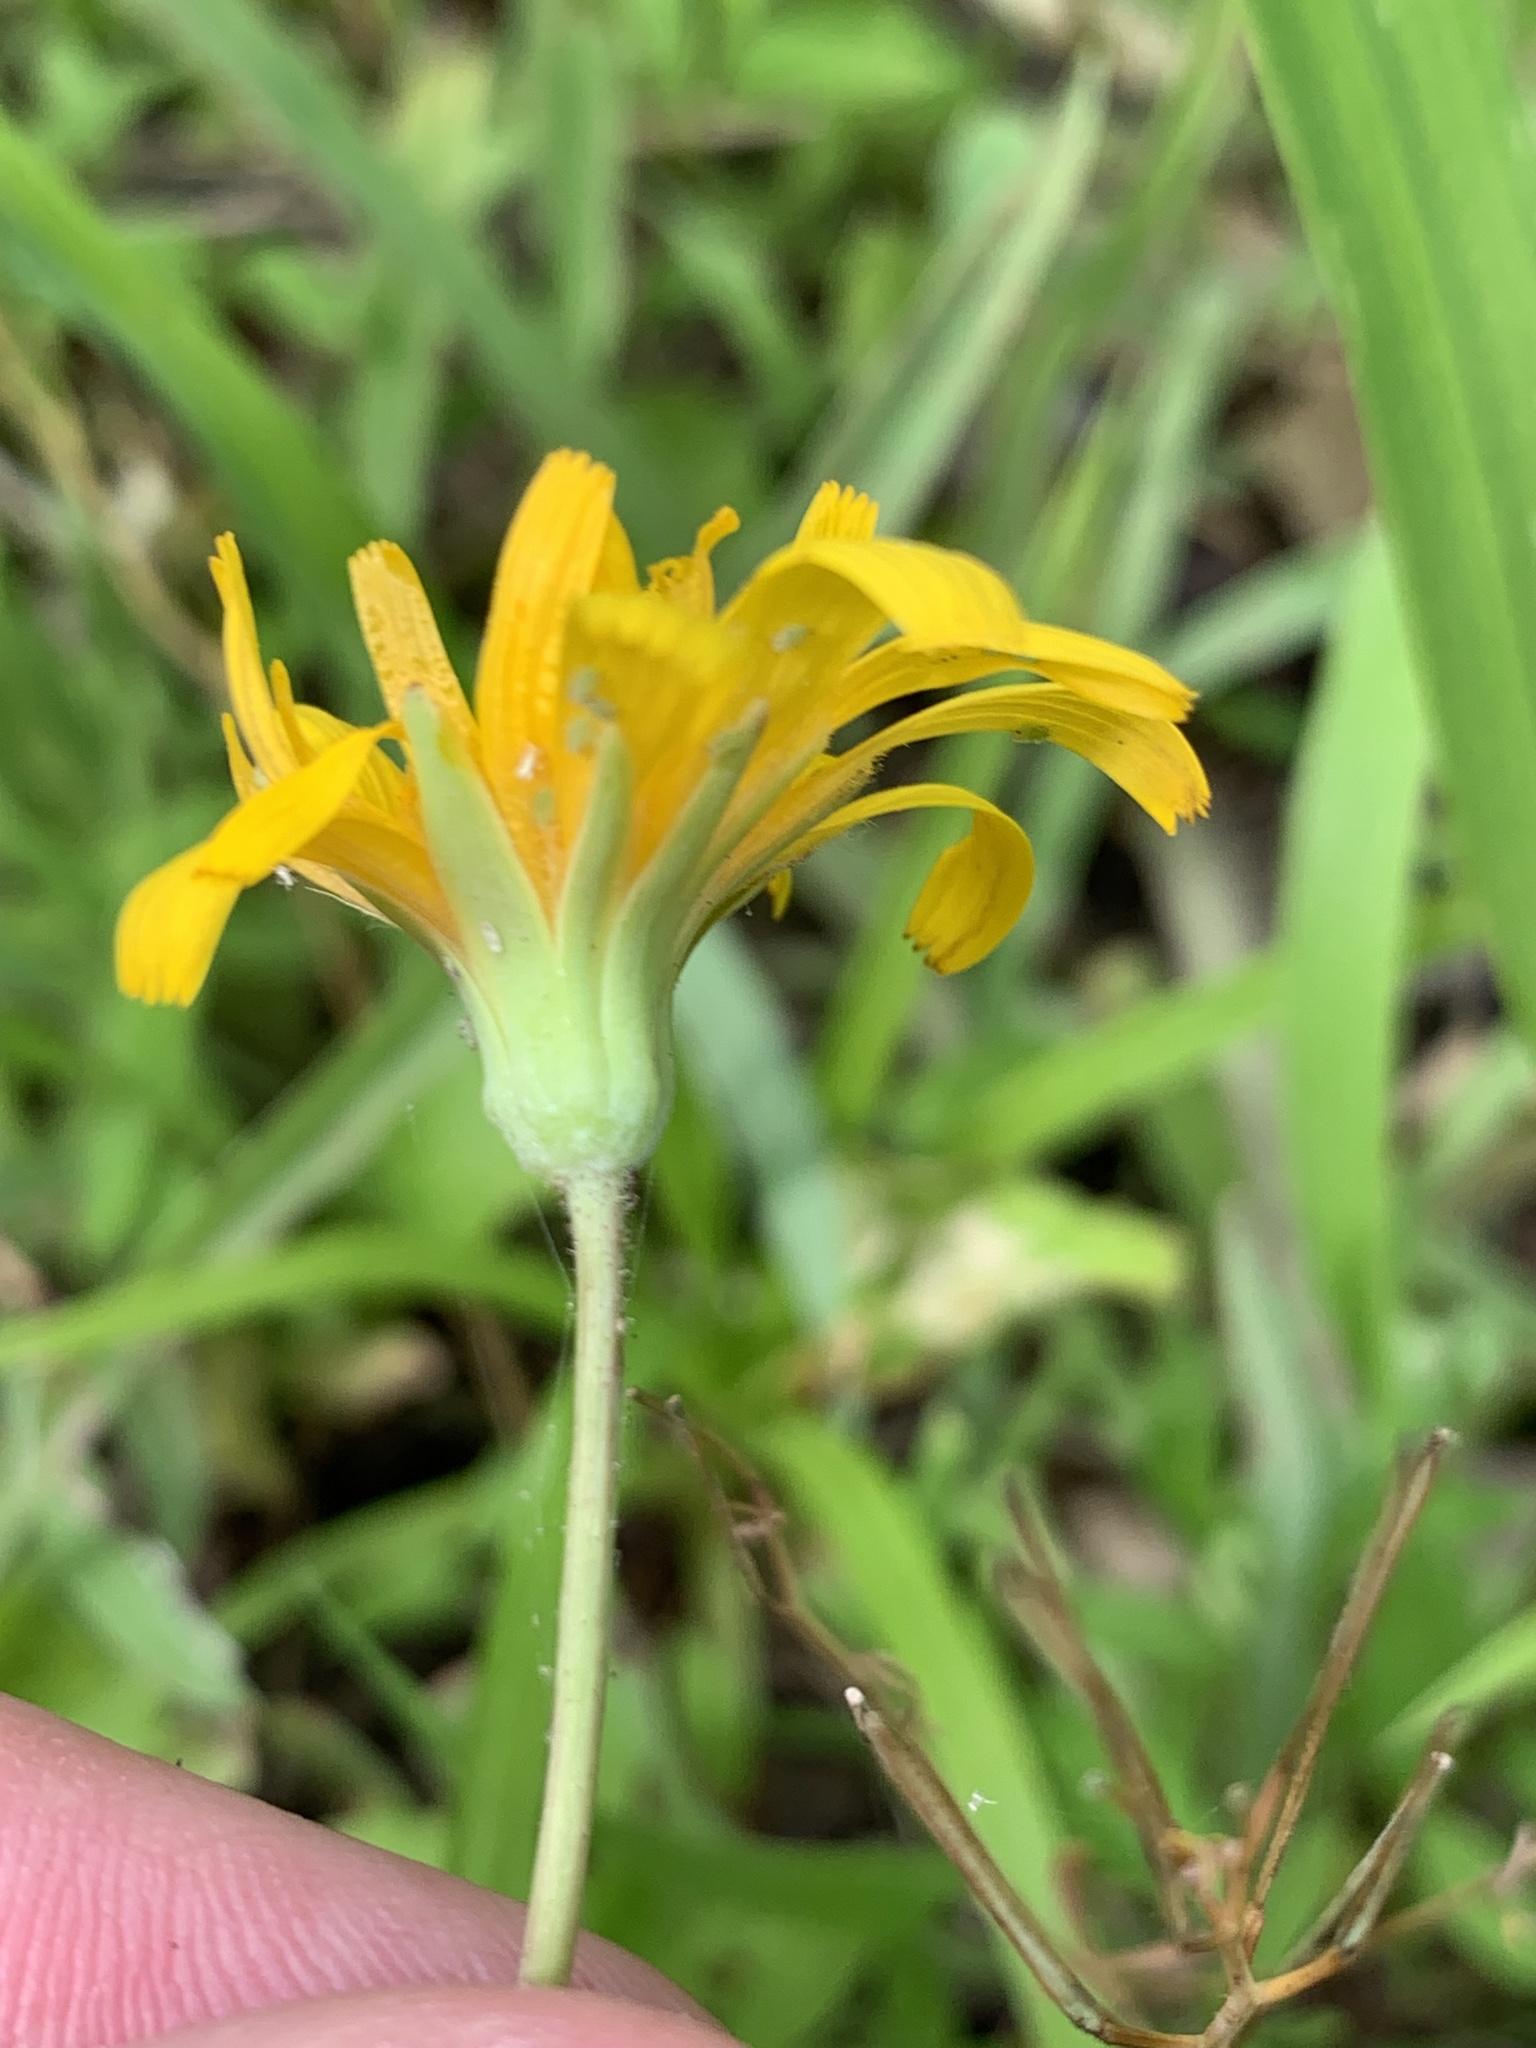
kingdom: Plantae
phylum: Tracheophyta
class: Magnoliopsida
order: Asterales
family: Asteraceae
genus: Krigia
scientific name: Krigia dandelion
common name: Colonial dwarf-dandelion
